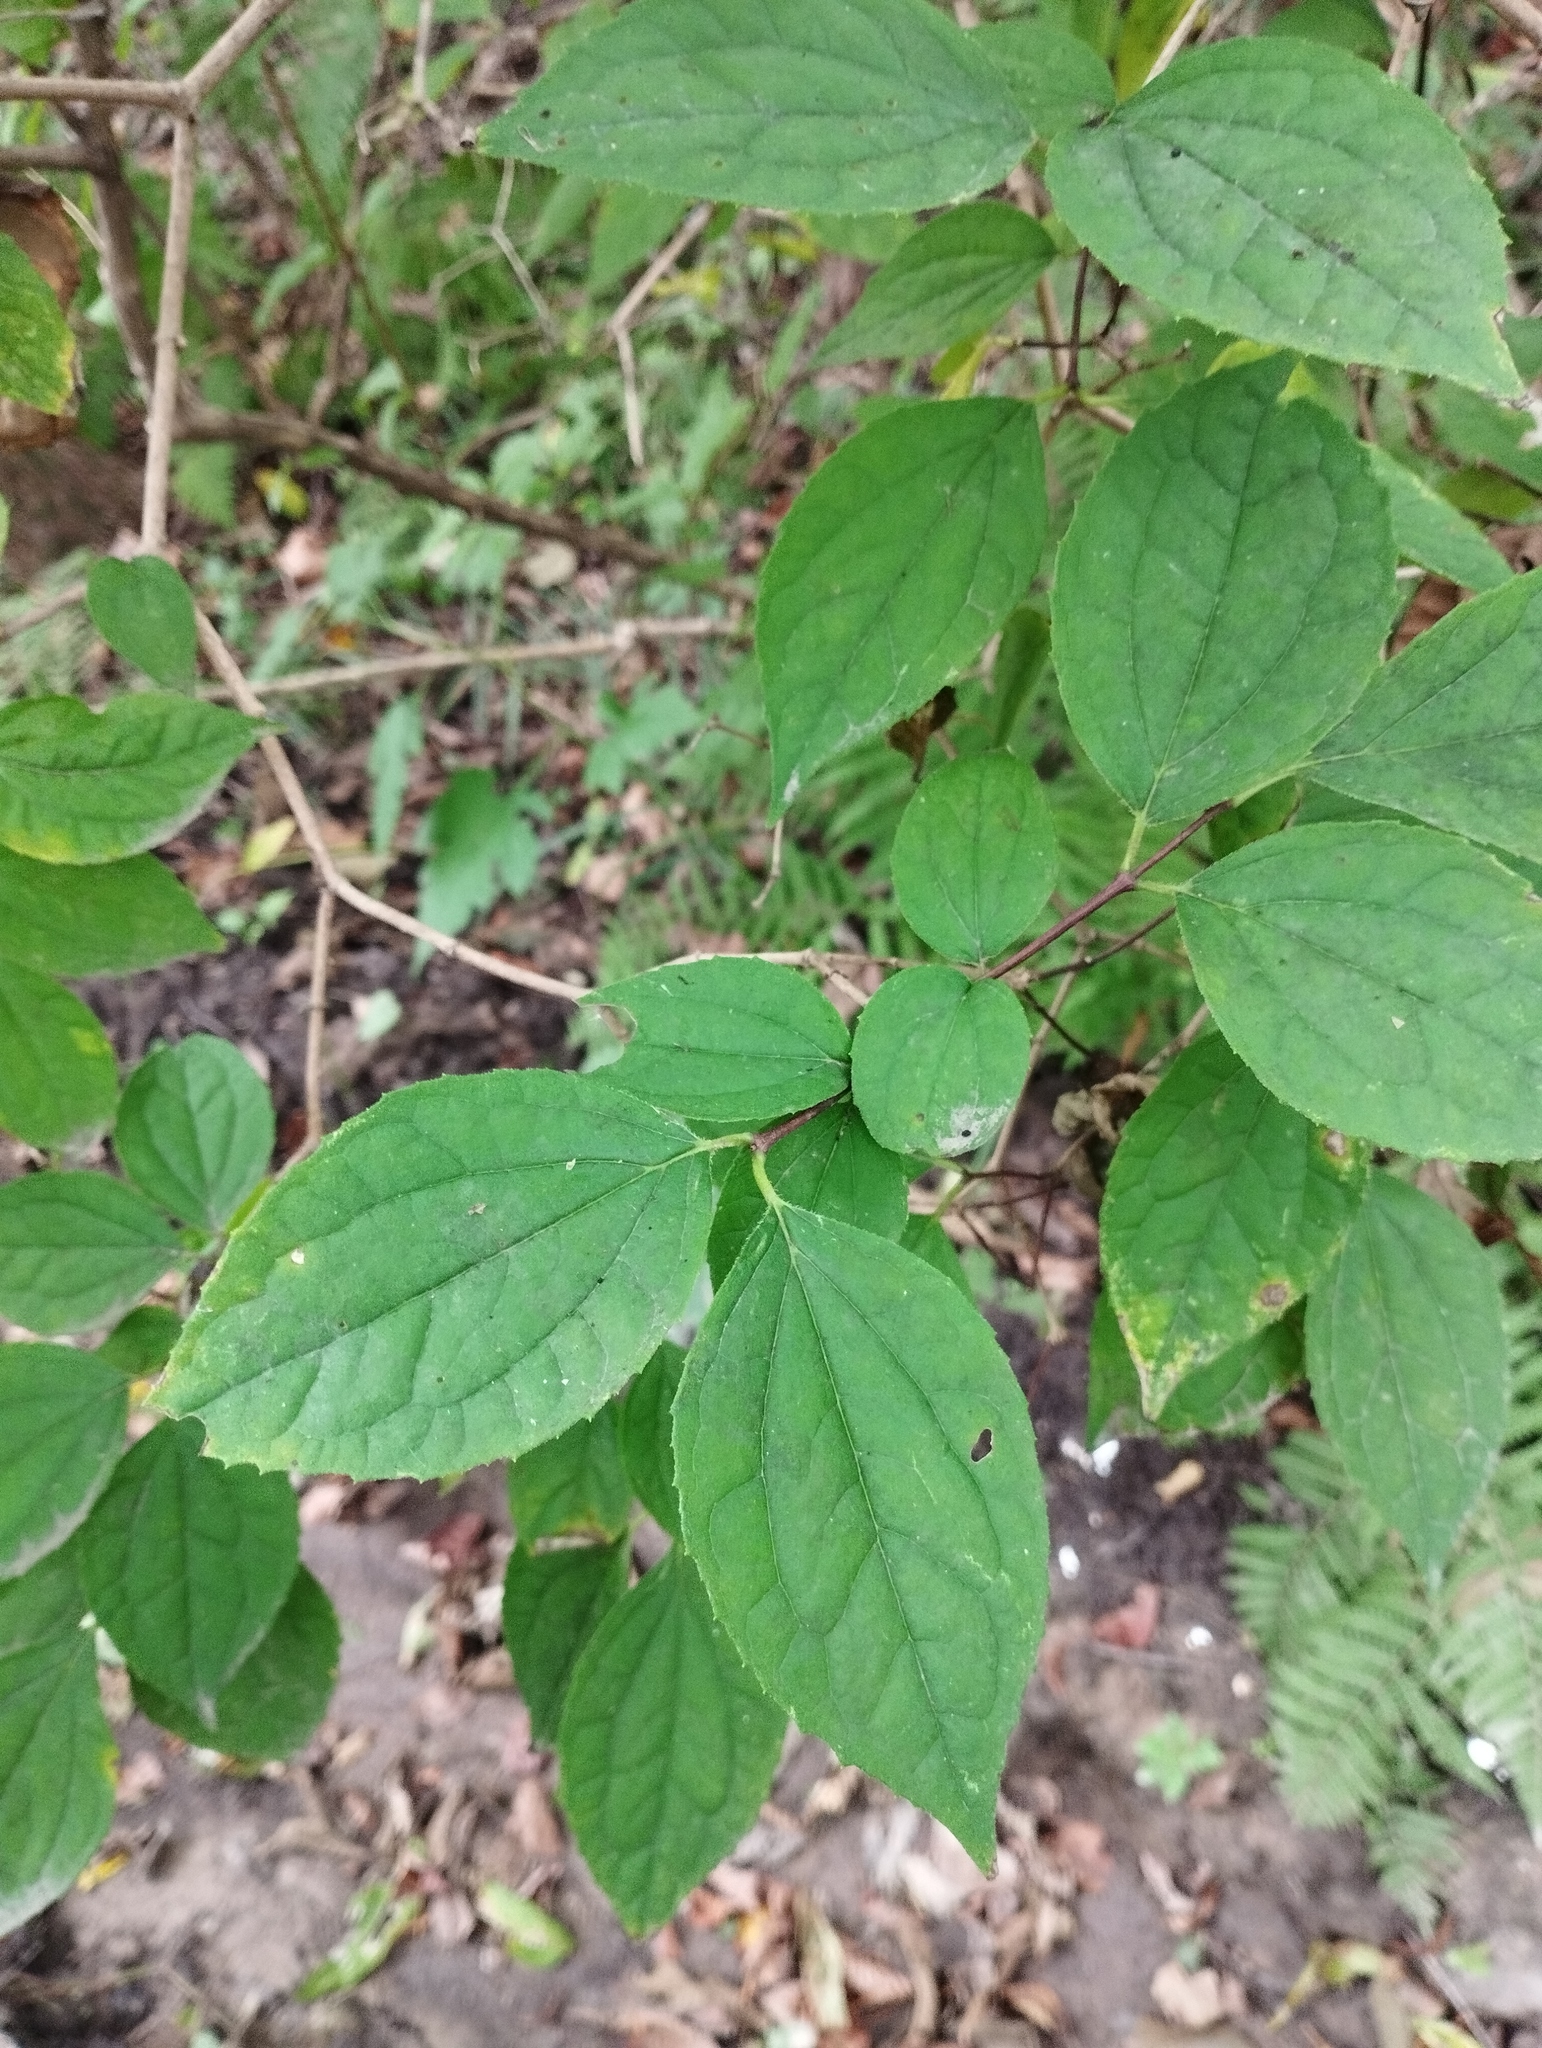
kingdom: Plantae
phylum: Tracheophyta
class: Magnoliopsida
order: Cornales
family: Hydrangeaceae
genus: Philadelphus
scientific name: Philadelphus tenuifolius
